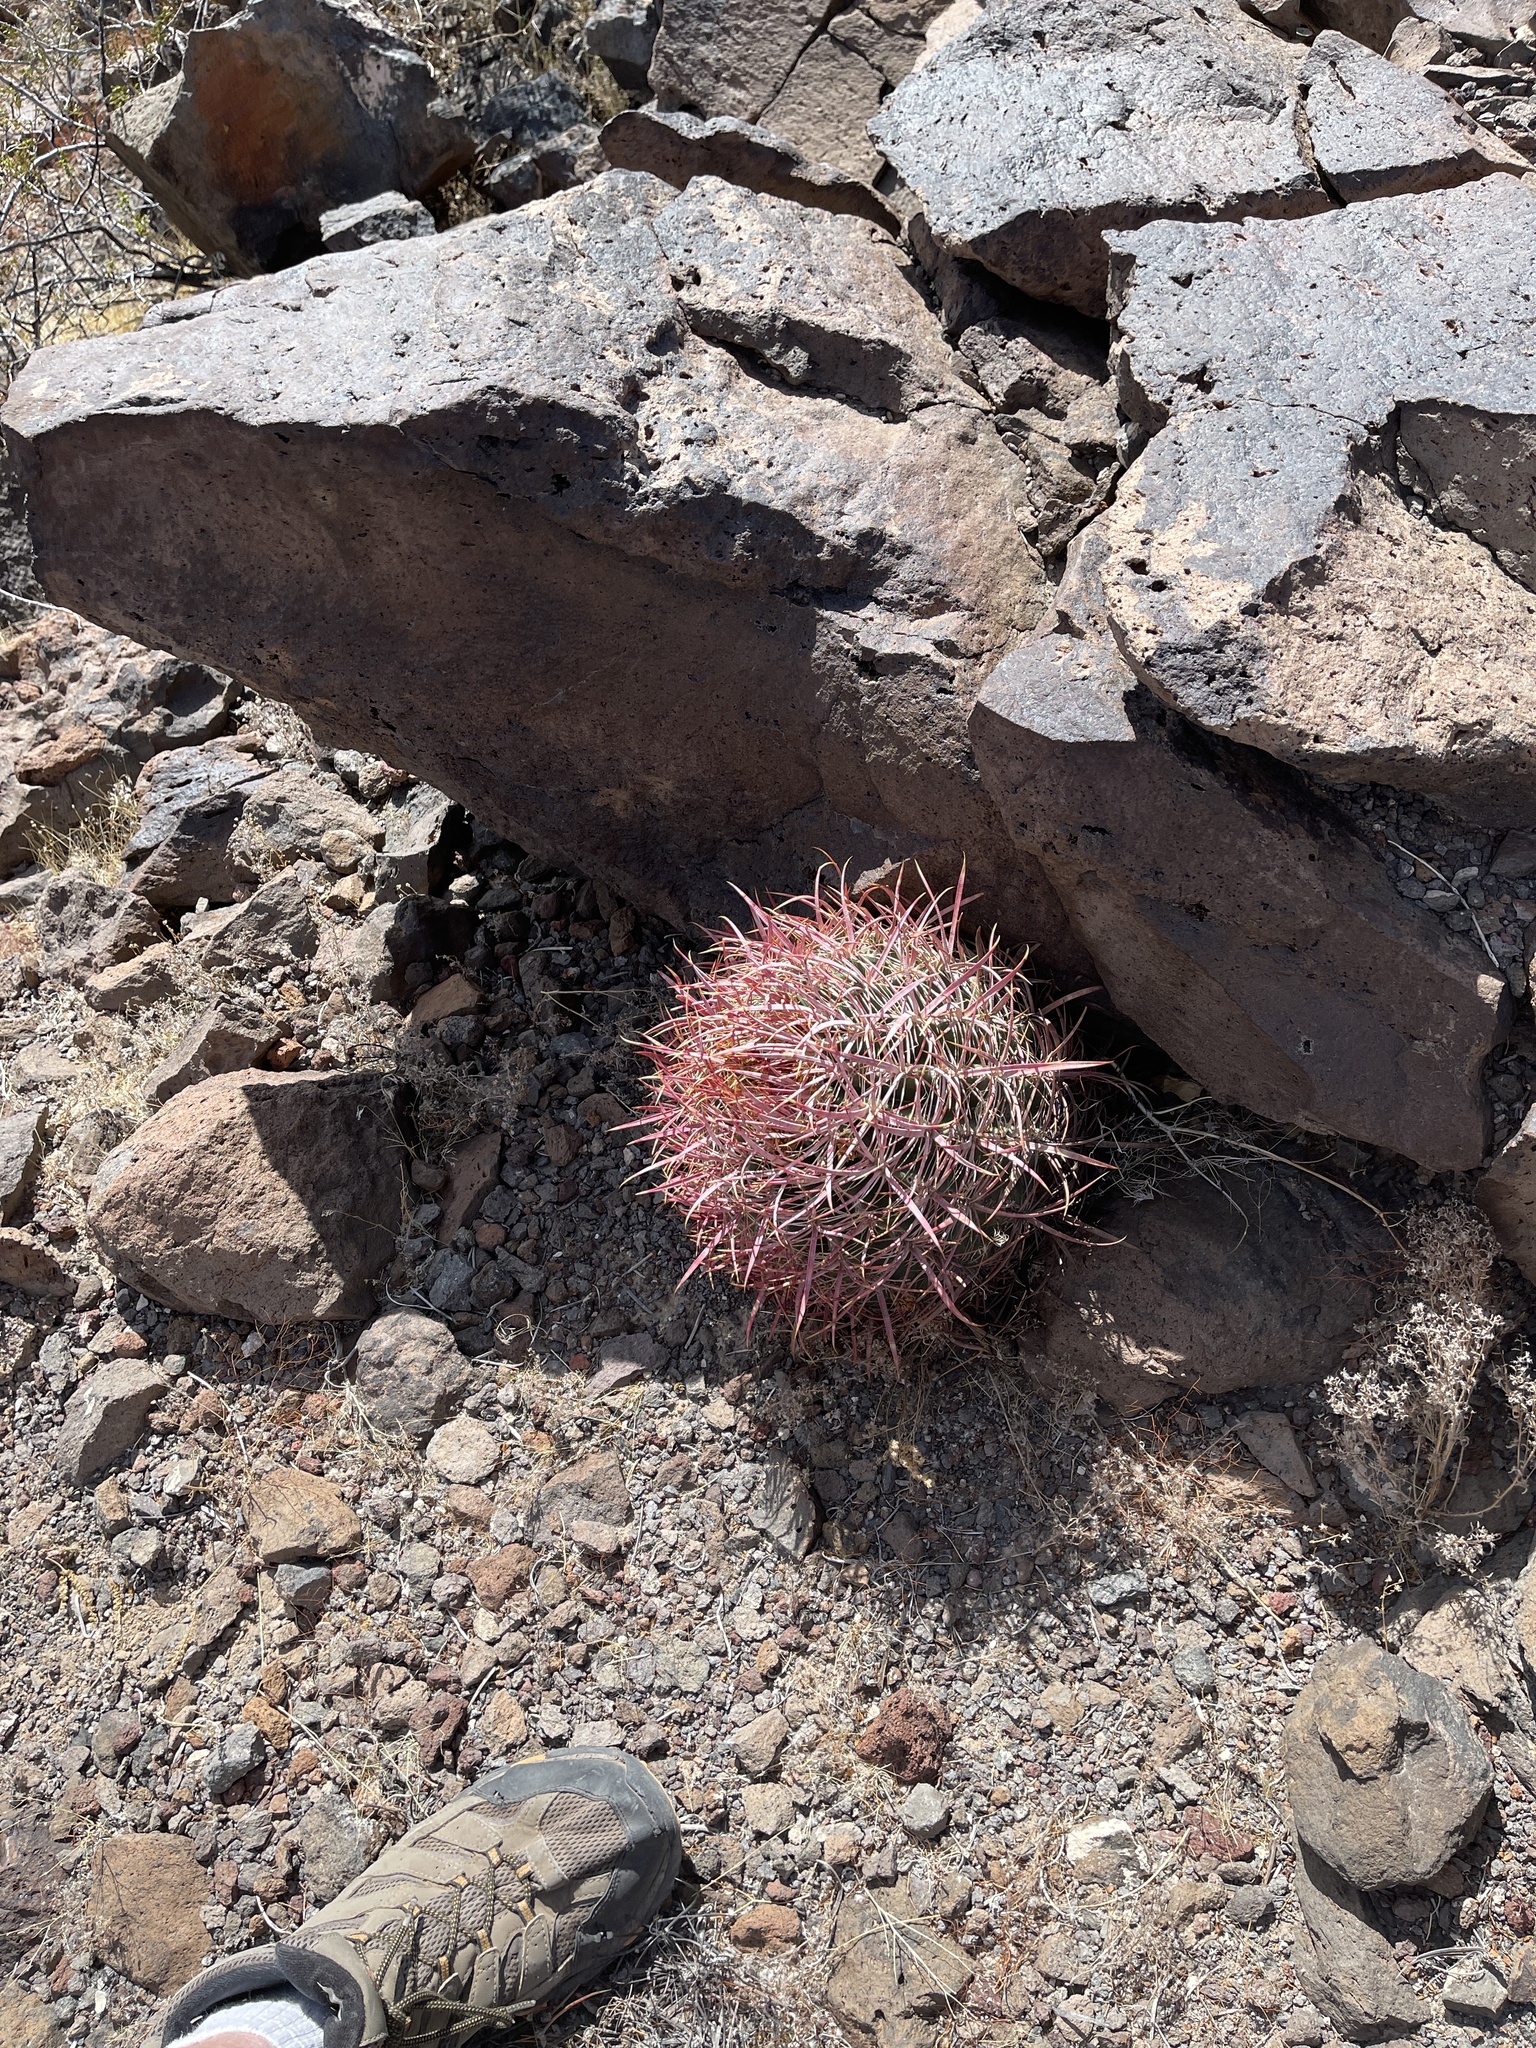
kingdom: Plantae
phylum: Tracheophyta
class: Magnoliopsida
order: Caryophyllales
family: Cactaceae
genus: Ferocactus
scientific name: Ferocactus cylindraceus
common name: California barrel cactus
